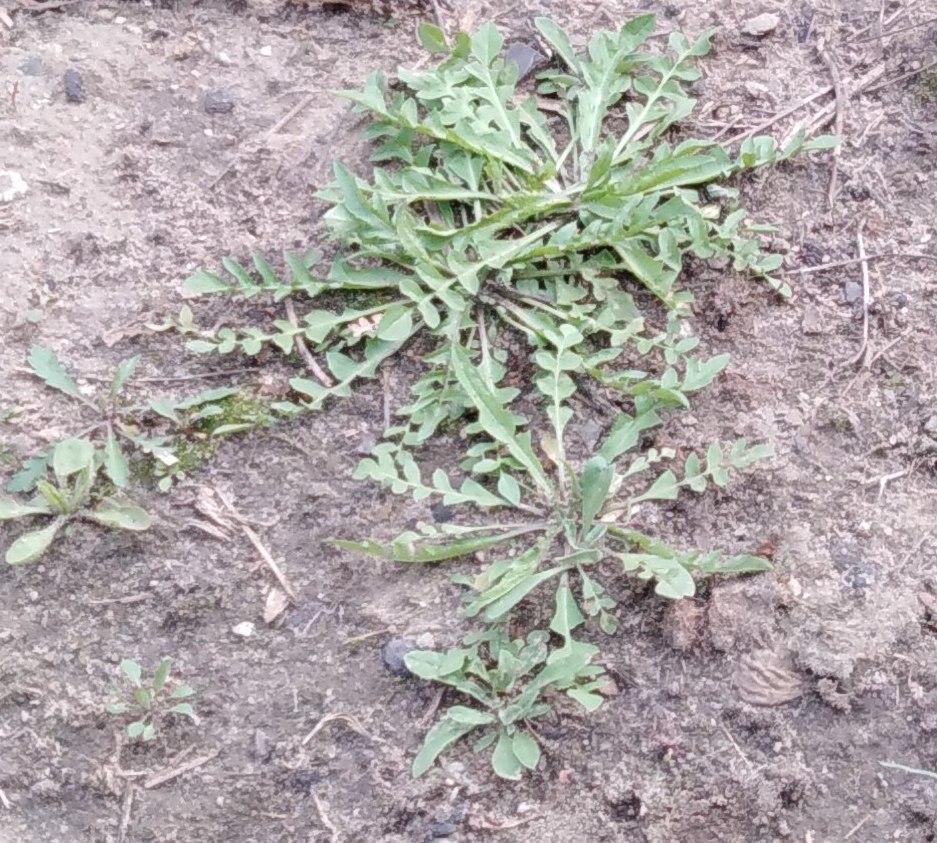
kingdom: Plantae
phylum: Tracheophyta
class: Magnoliopsida
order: Brassicales
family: Brassicaceae
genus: Capsella
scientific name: Capsella bursa-pastoris
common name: Shepherd's purse
